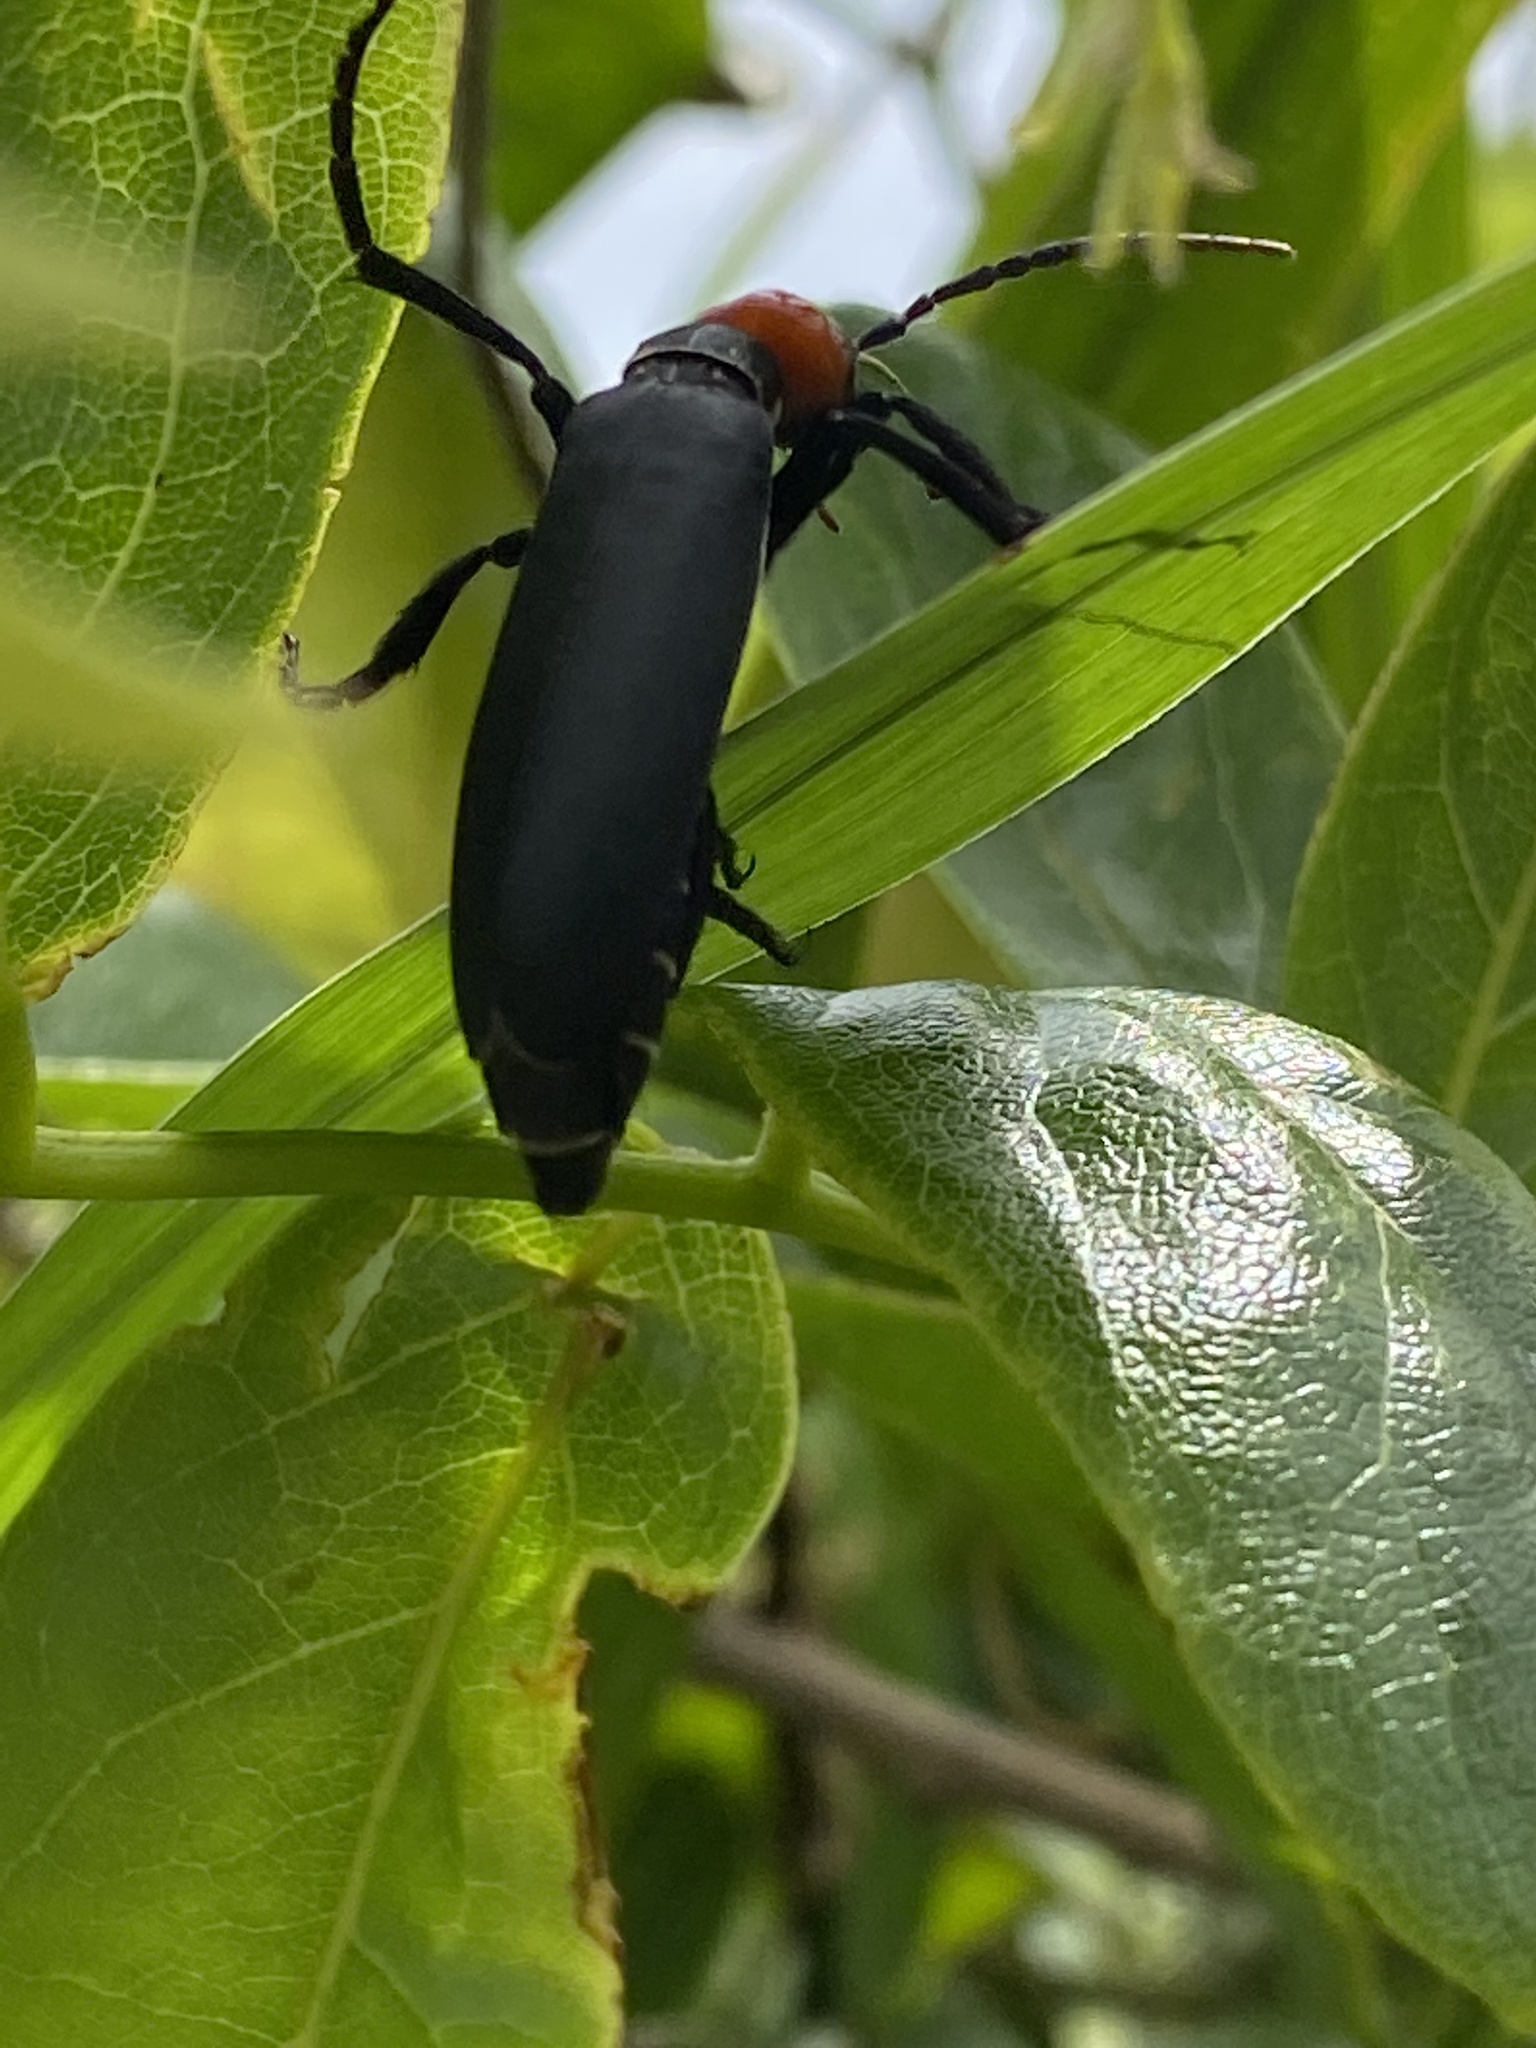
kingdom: Animalia
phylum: Arthropoda
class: Insecta
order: Coleoptera
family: Meloidae
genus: Epicauta
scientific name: Epicauta hirticornis
